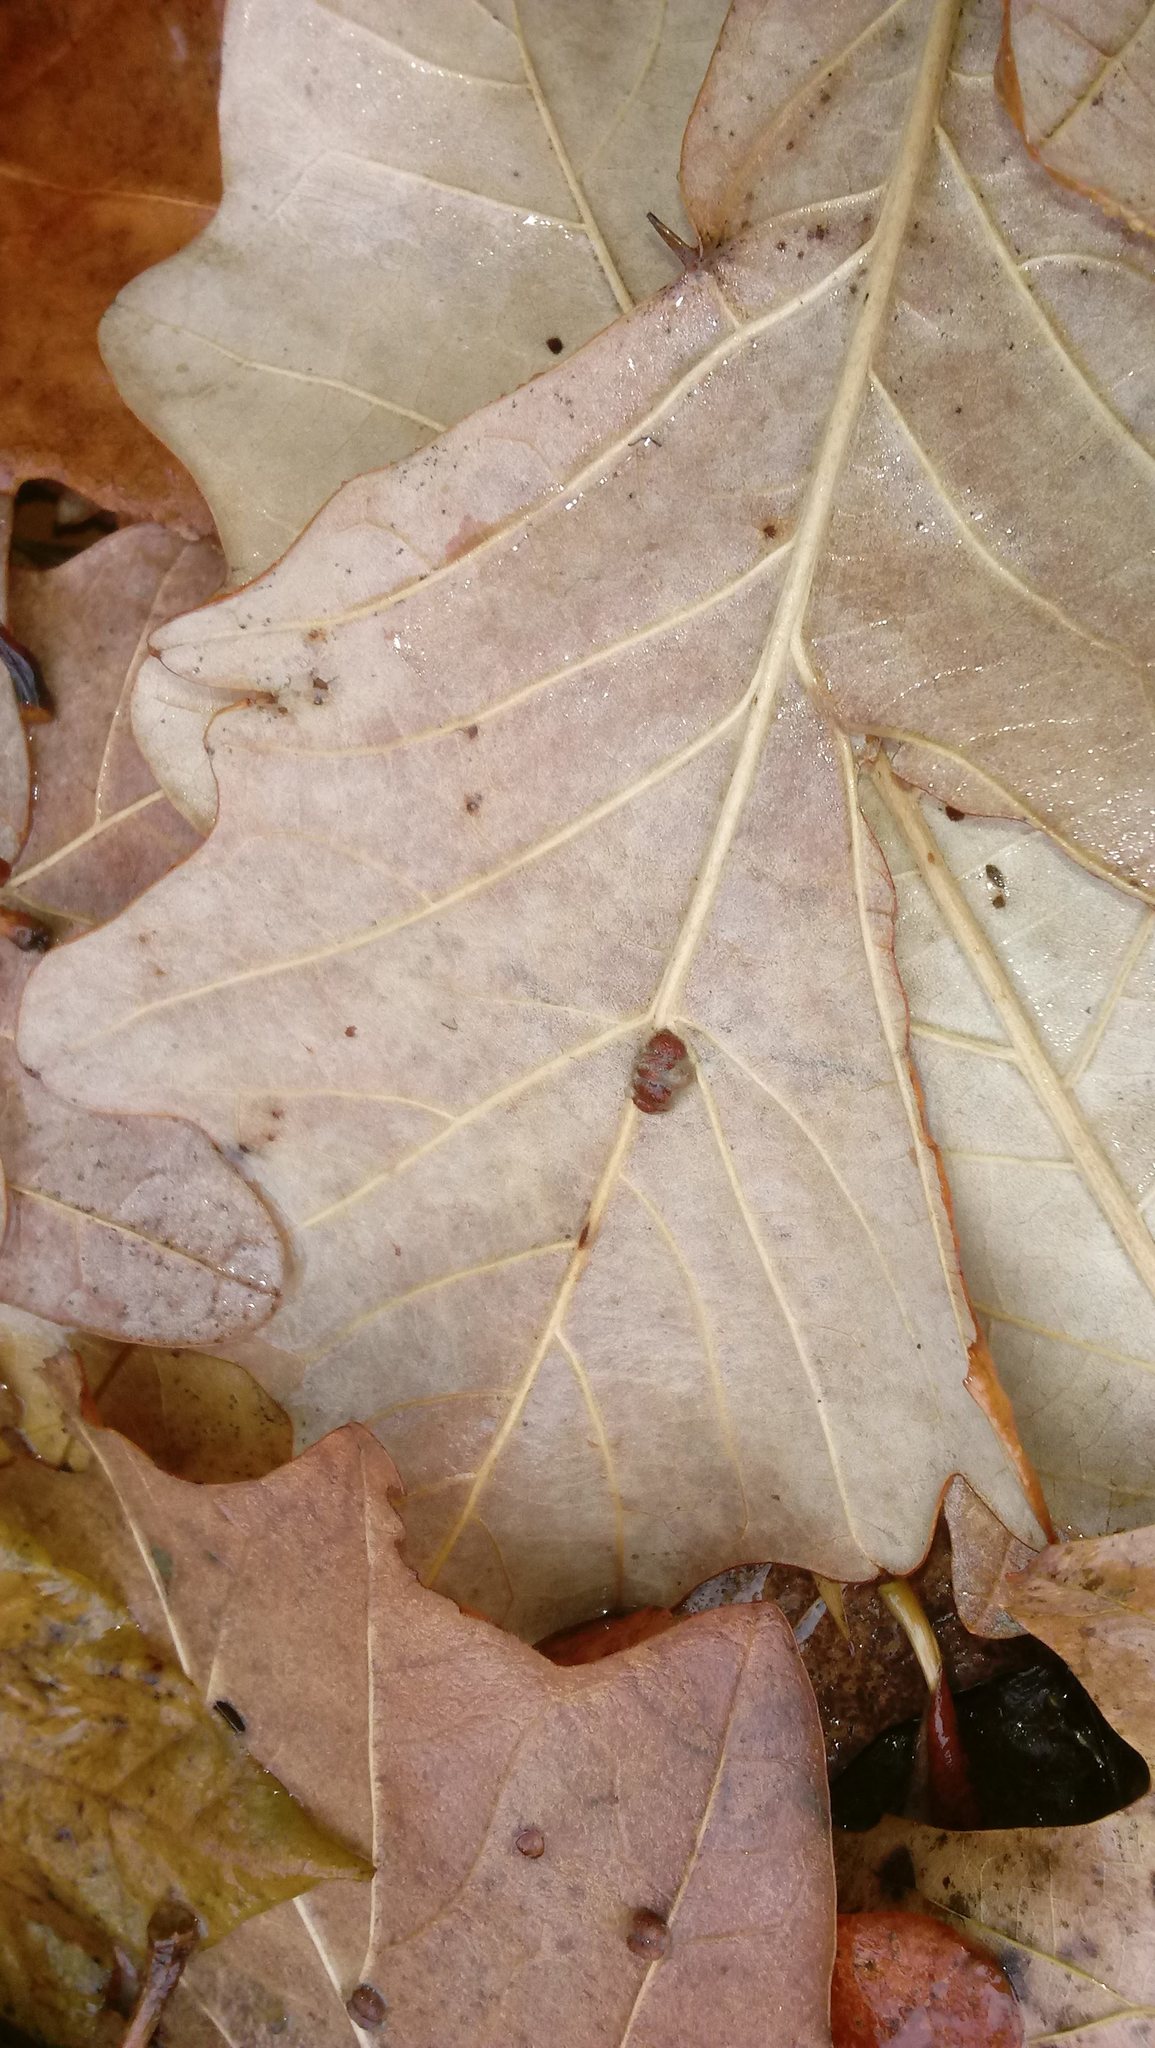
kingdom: Animalia
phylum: Arthropoda
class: Insecta
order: Hymenoptera
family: Cynipidae
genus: Andricus
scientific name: Andricus Druon ignotum
